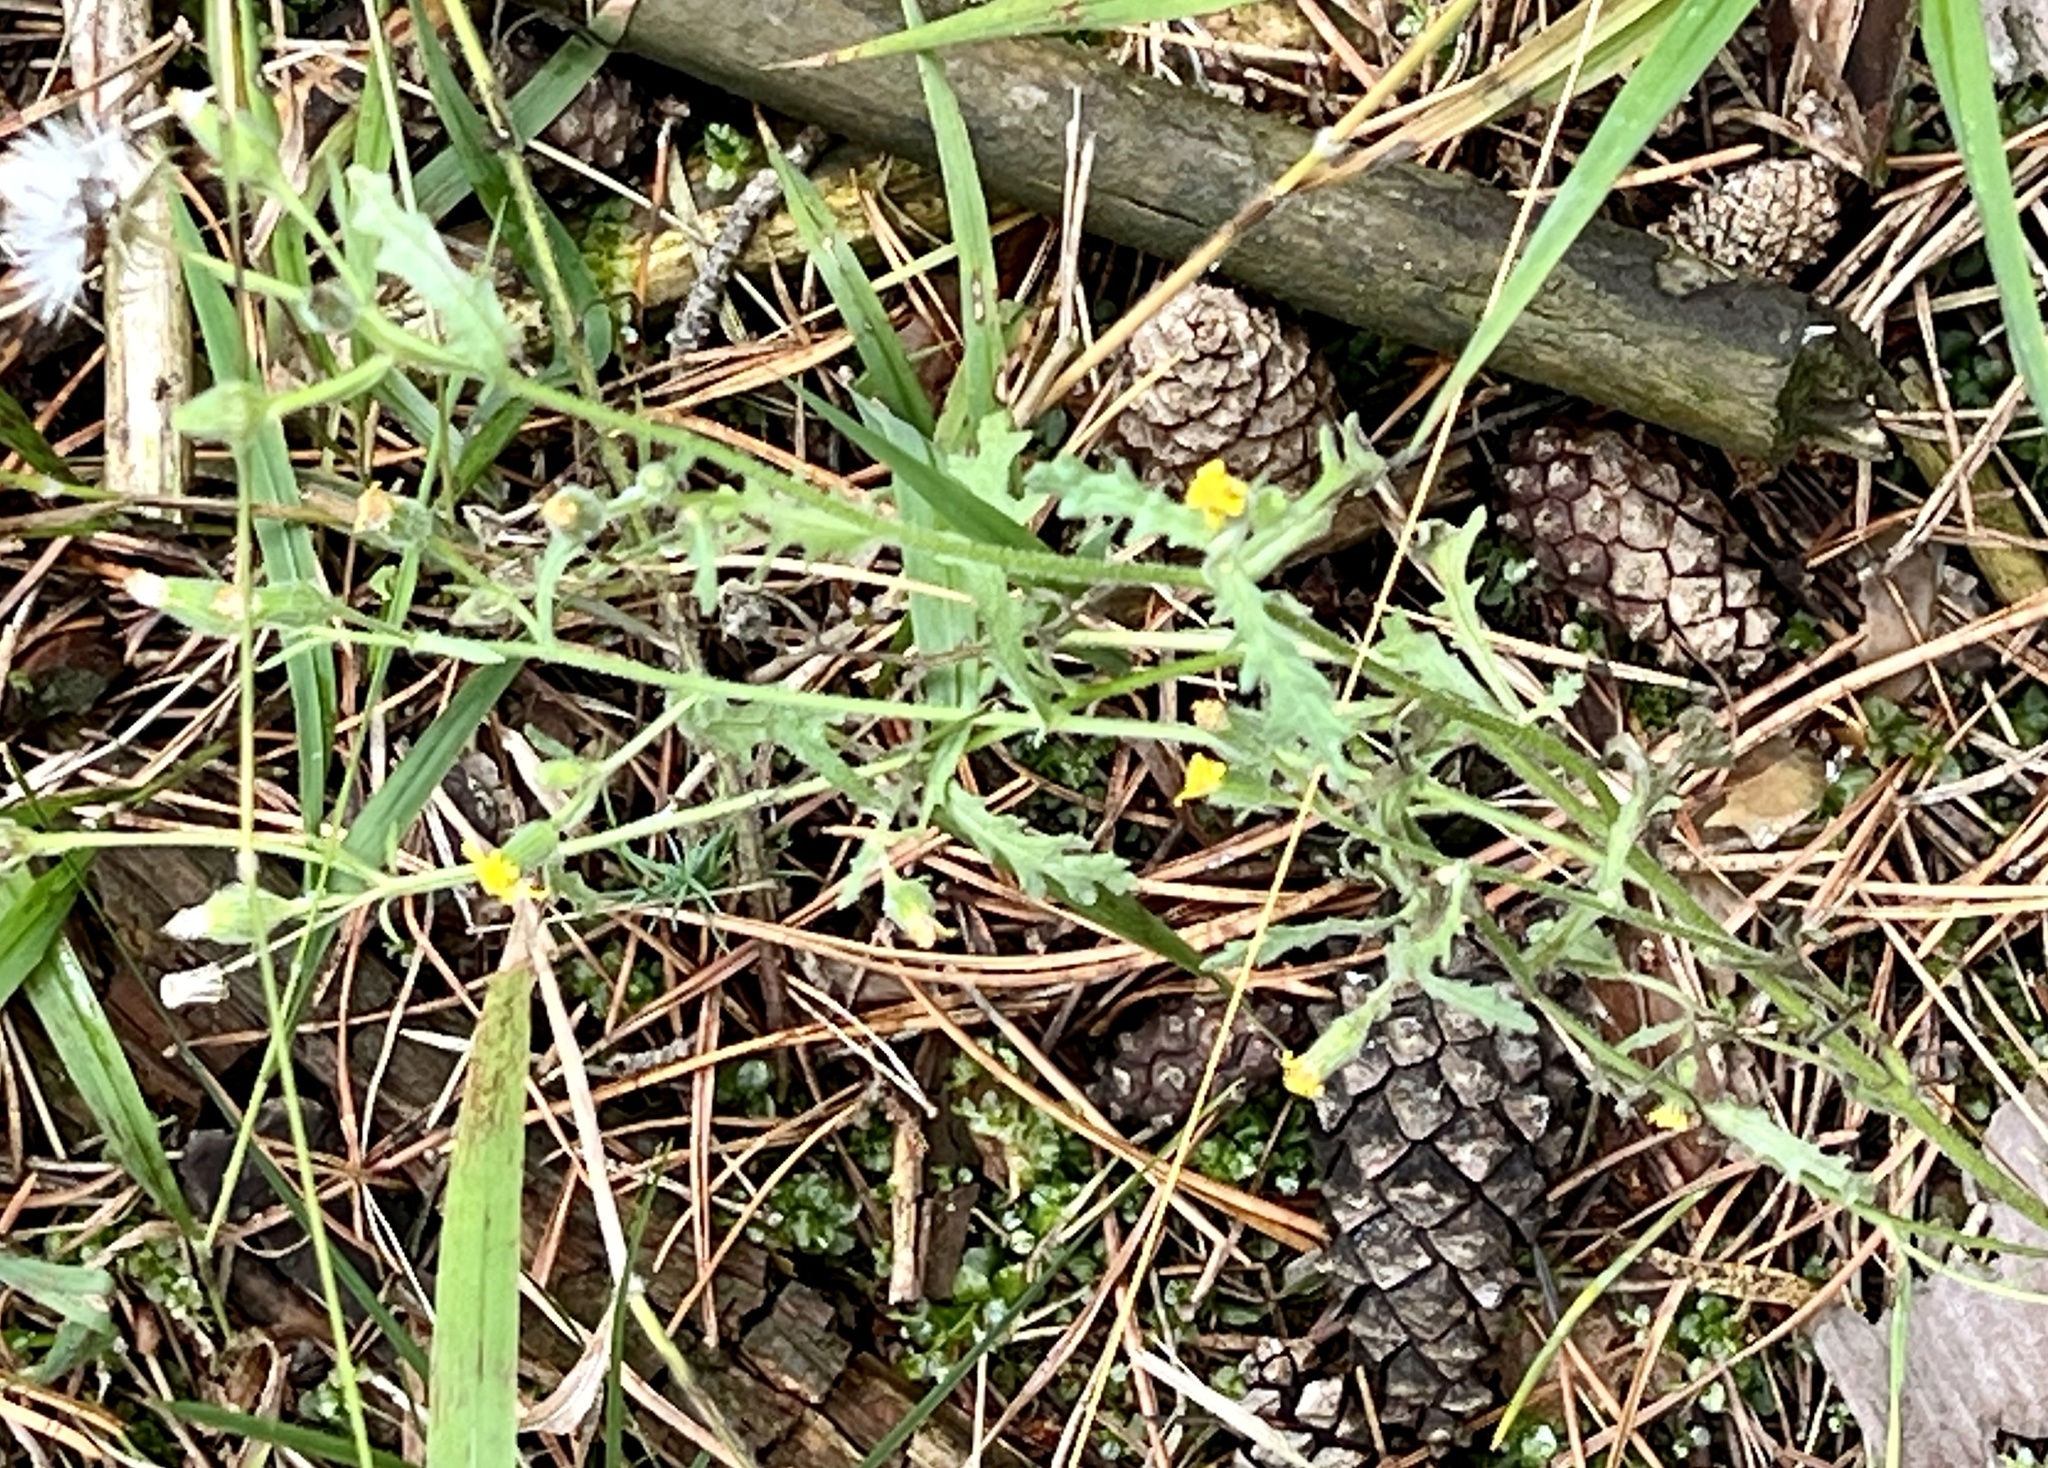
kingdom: Plantae
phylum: Tracheophyta
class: Magnoliopsida
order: Asterales
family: Asteraceae
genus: Senecio
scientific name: Senecio viscosus
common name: Sticky groundsel
